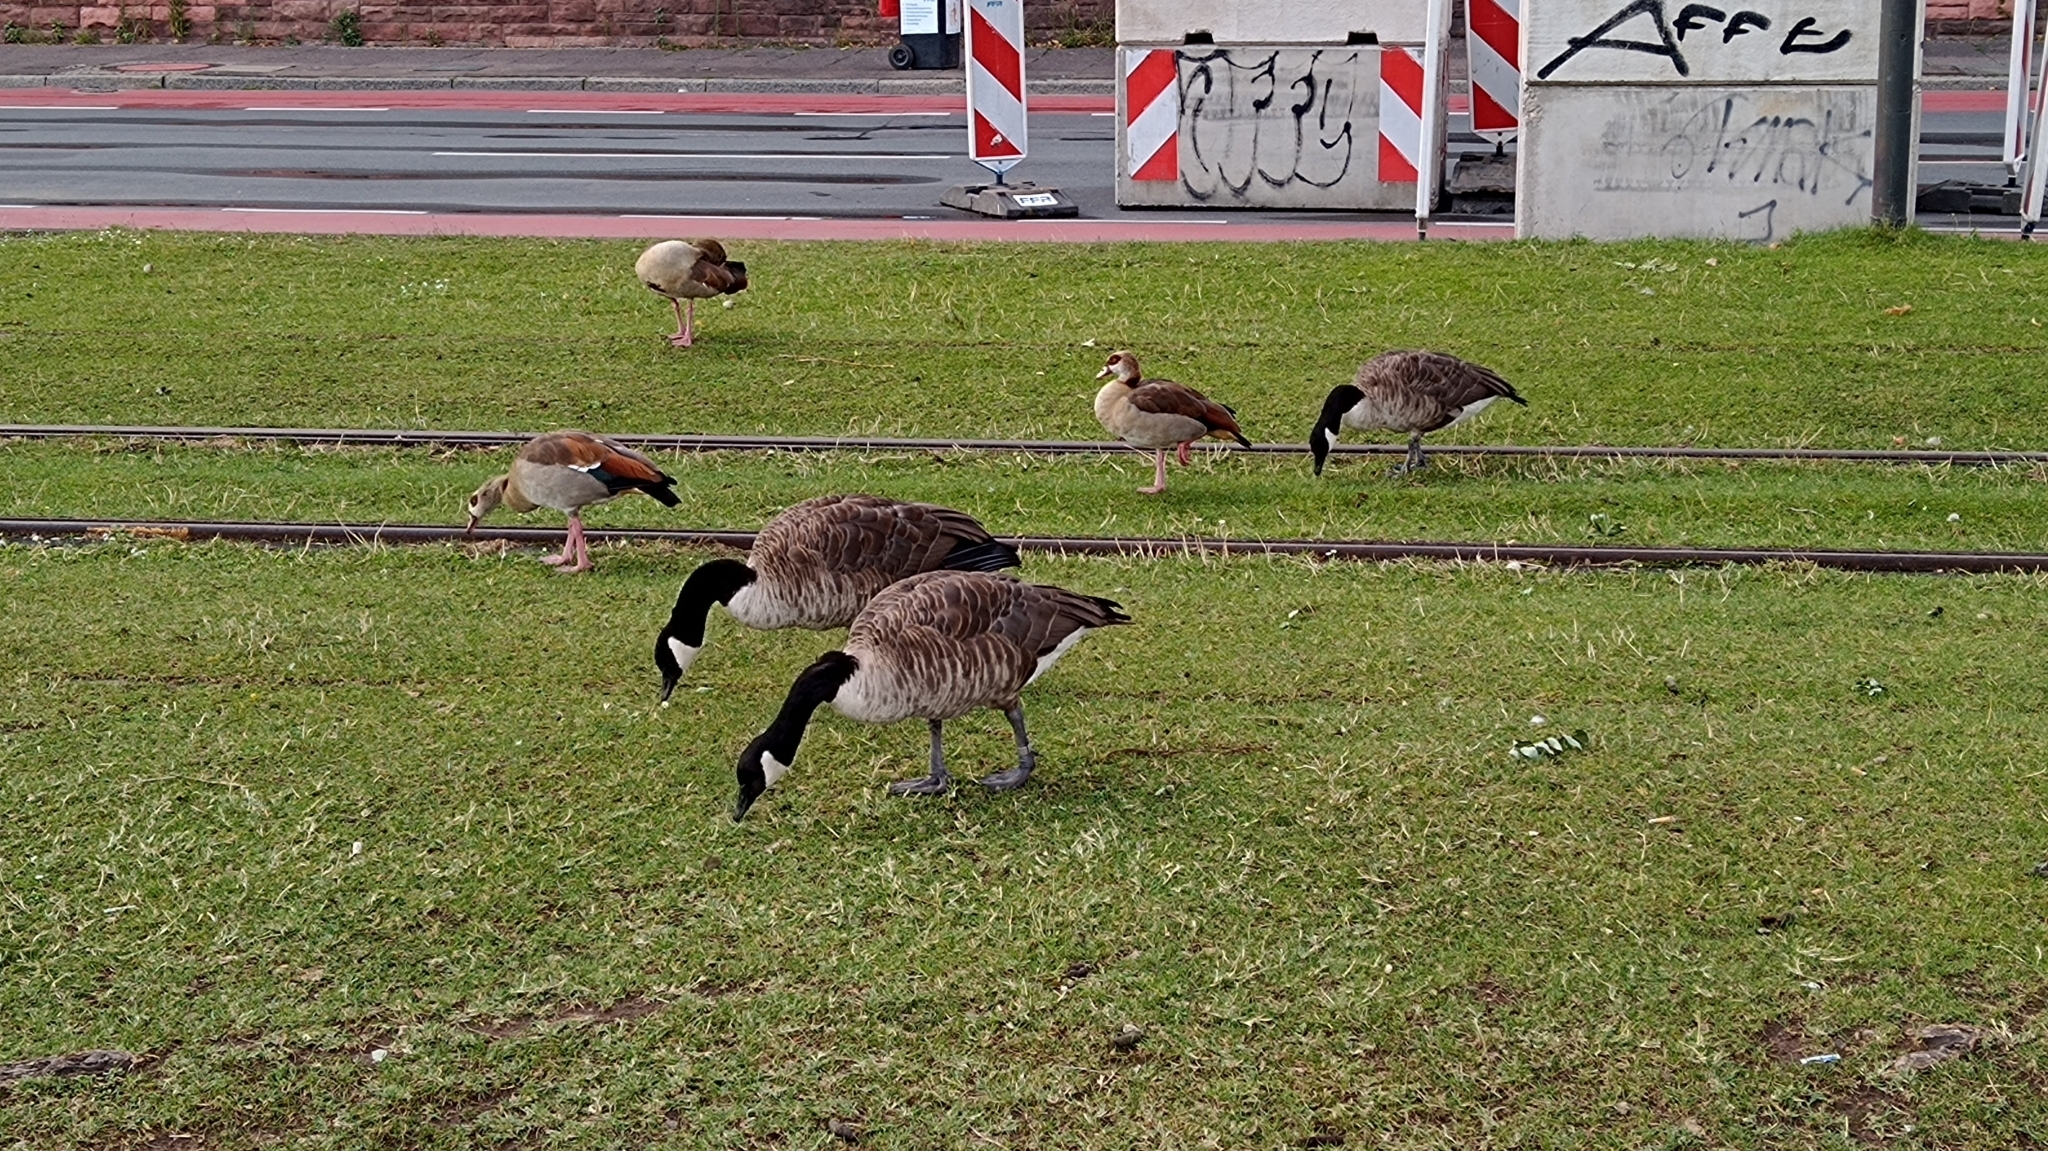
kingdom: Animalia
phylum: Chordata
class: Aves
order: Anseriformes
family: Anatidae
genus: Branta
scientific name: Branta canadensis
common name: Canada goose
